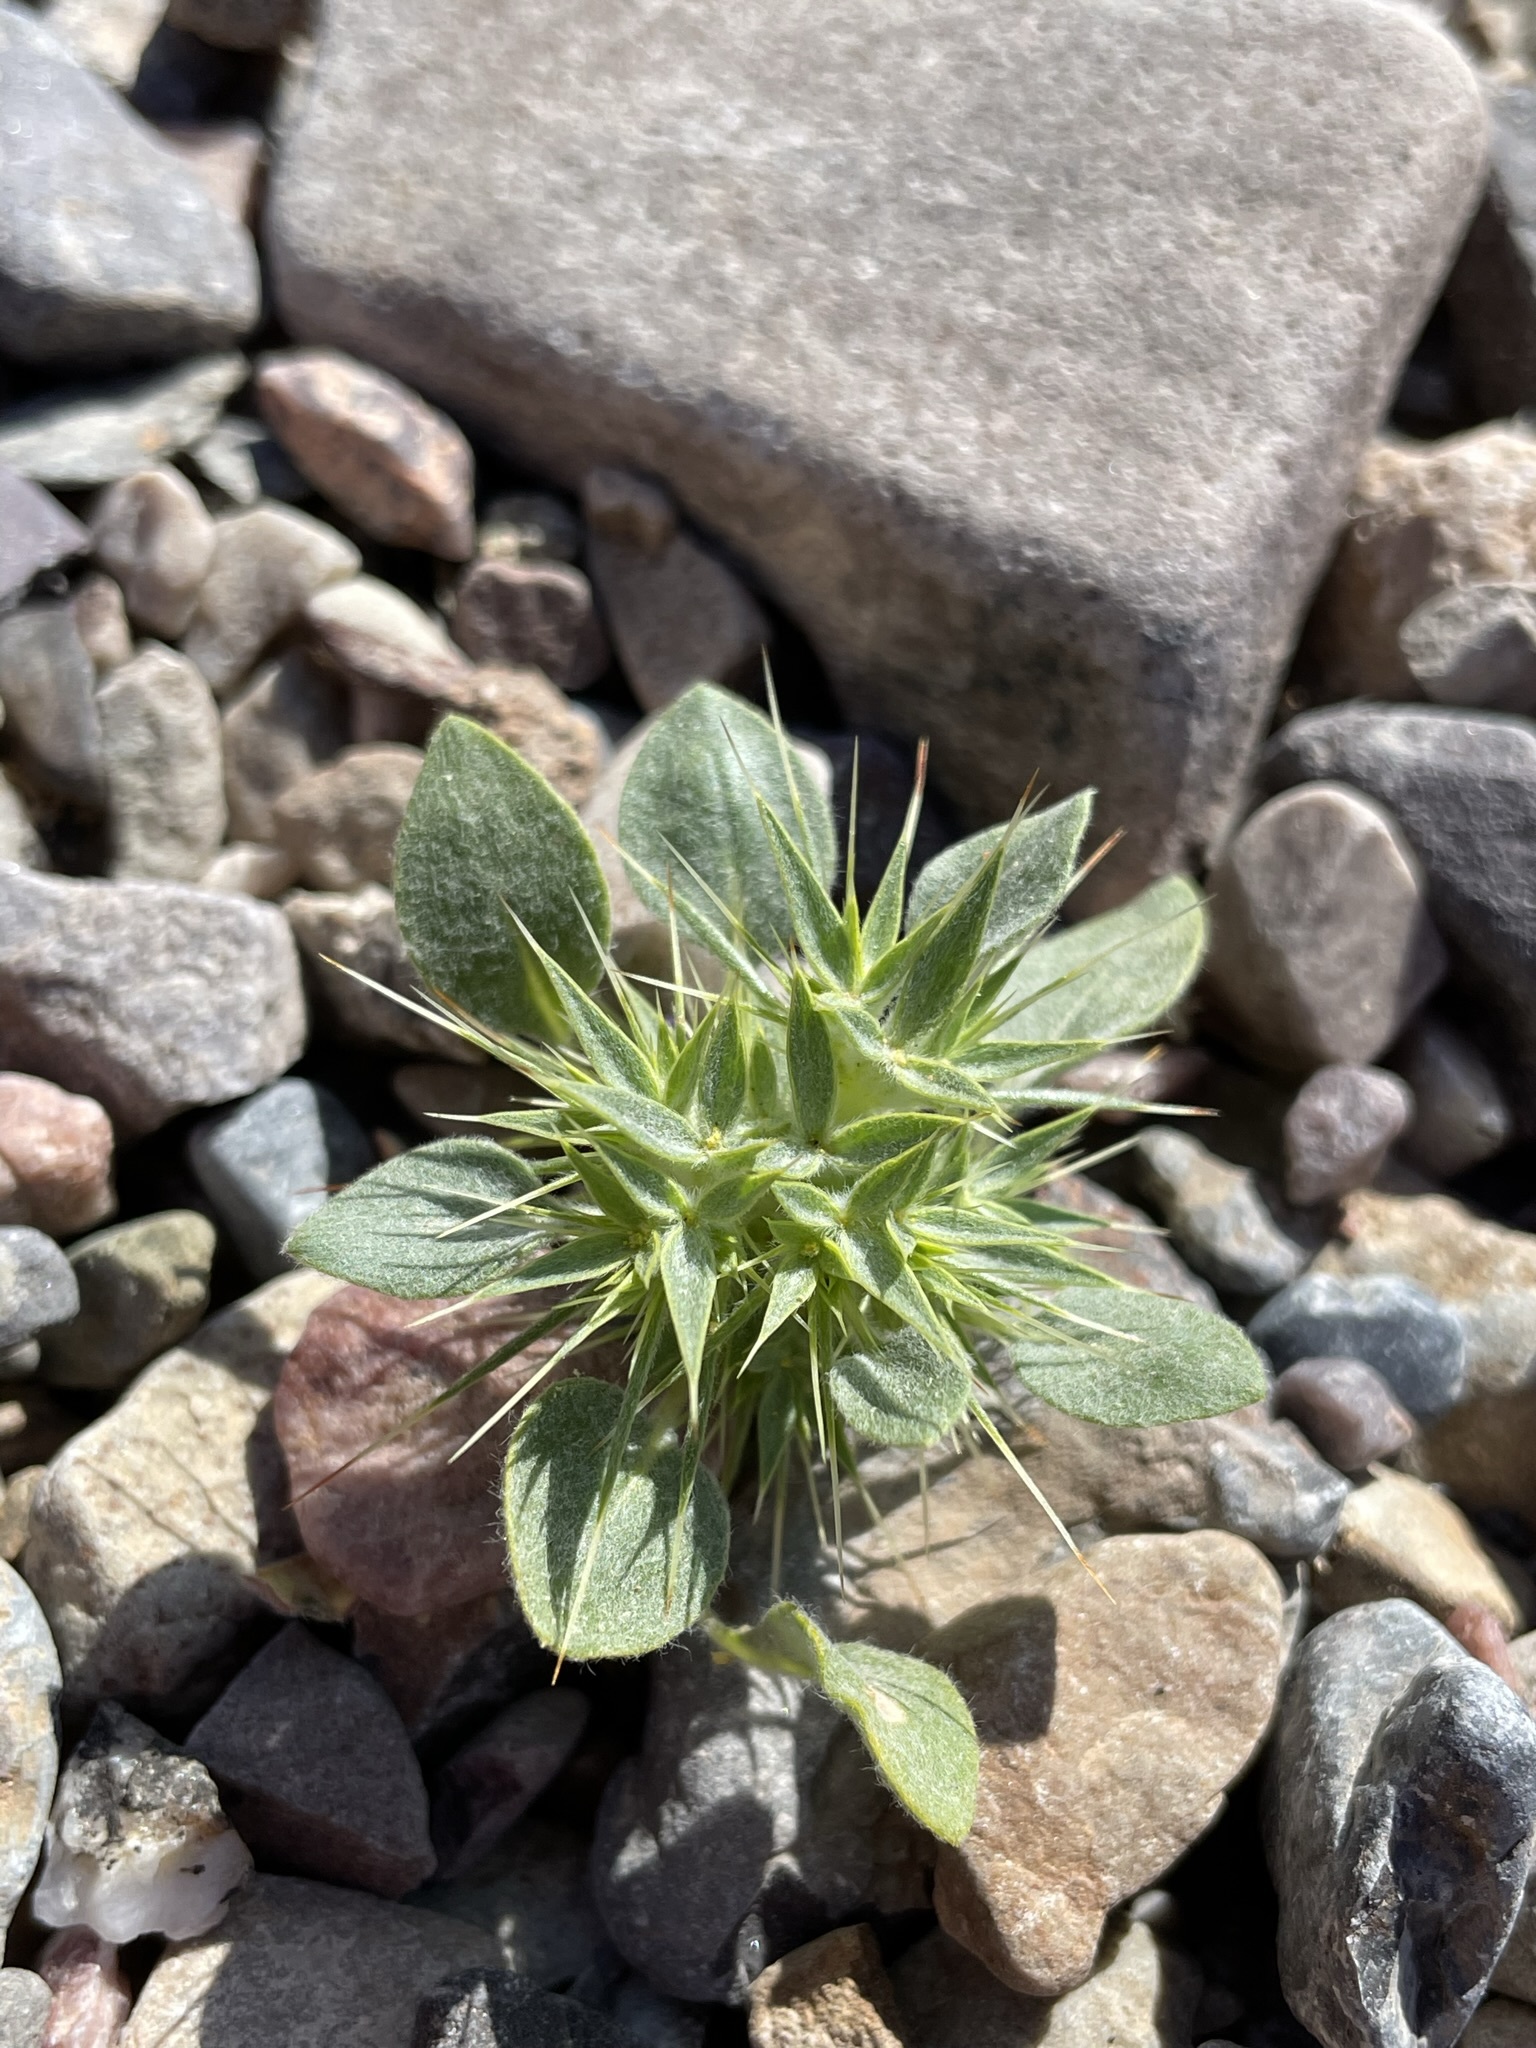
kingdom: Plantae
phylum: Tracheophyta
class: Magnoliopsida
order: Caryophyllales
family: Polygonaceae
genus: Chorizanthe
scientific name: Chorizanthe rigida
